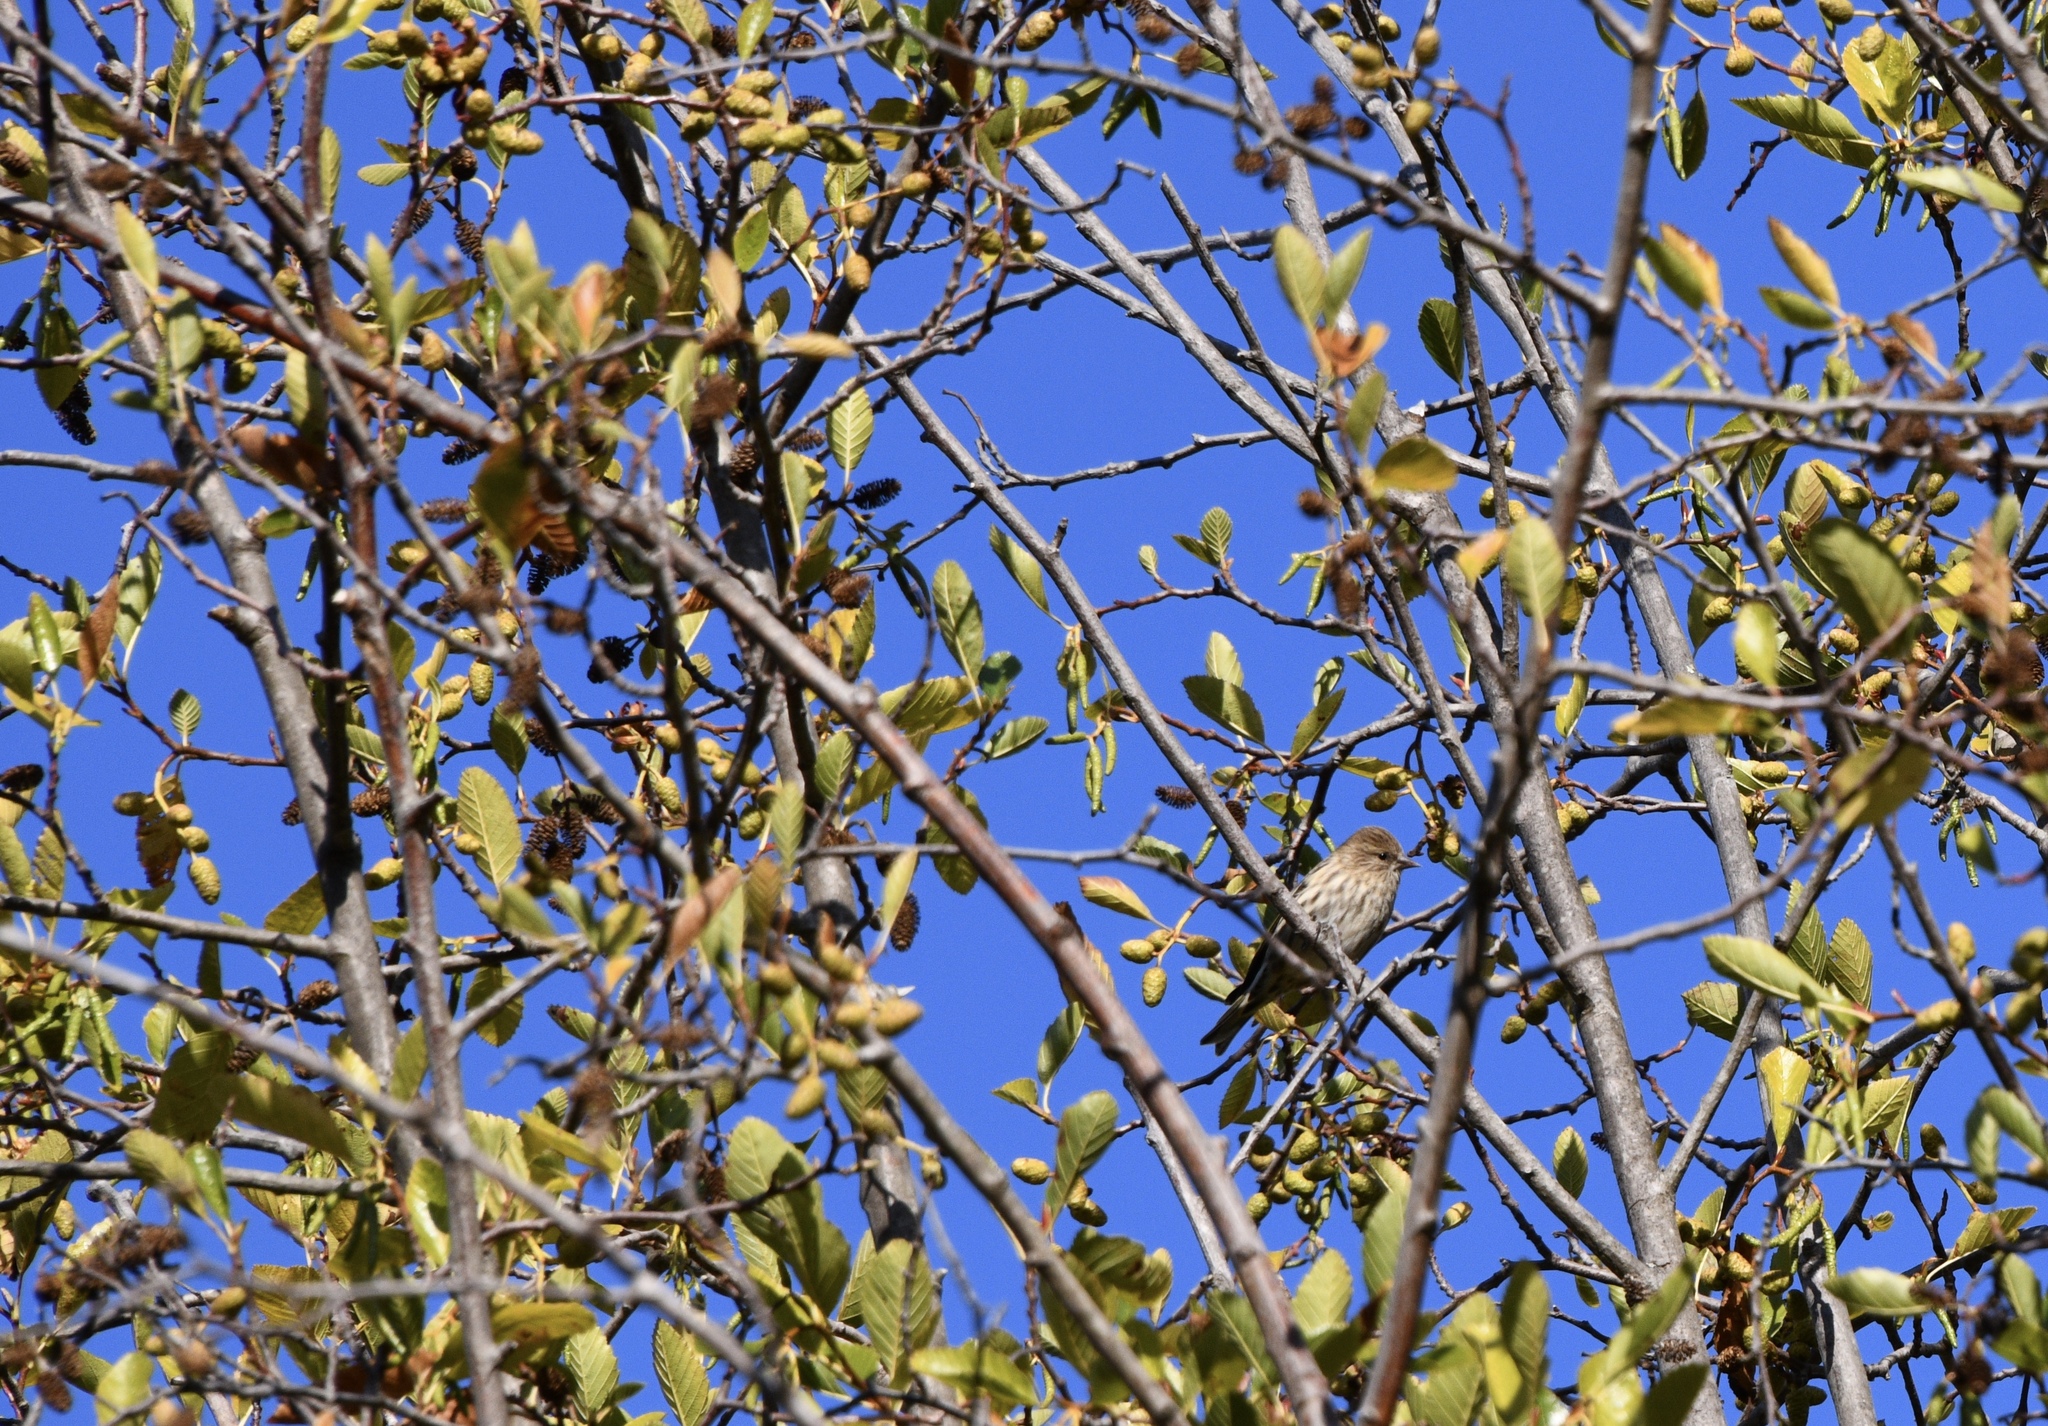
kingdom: Animalia
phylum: Chordata
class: Aves
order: Passeriformes
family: Fringillidae
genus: Spinus
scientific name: Spinus pinus
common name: Pine siskin
